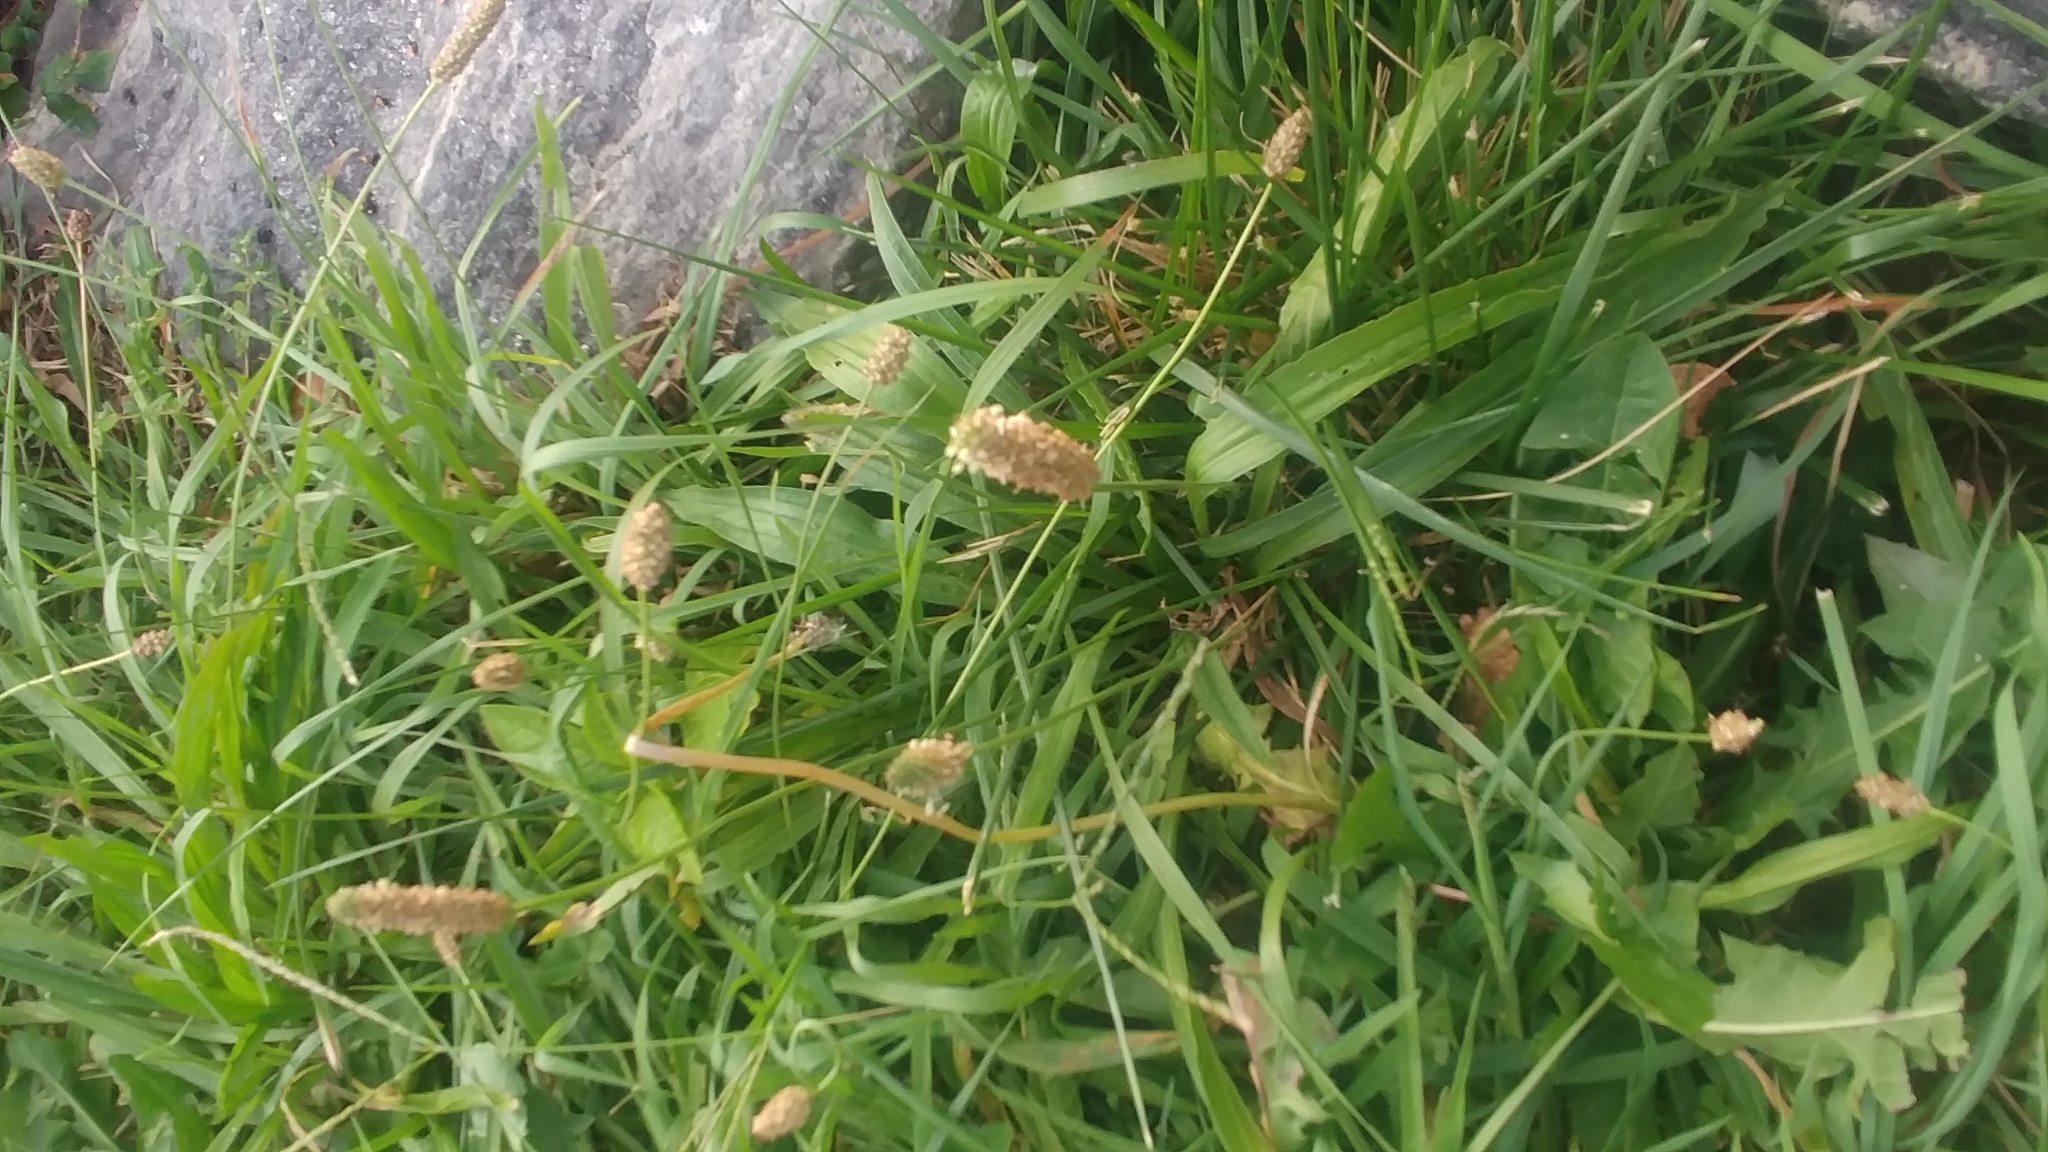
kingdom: Plantae
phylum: Tracheophyta
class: Magnoliopsida
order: Lamiales
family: Plantaginaceae
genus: Plantago
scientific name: Plantago lanceolata
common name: Ribwort plantain
